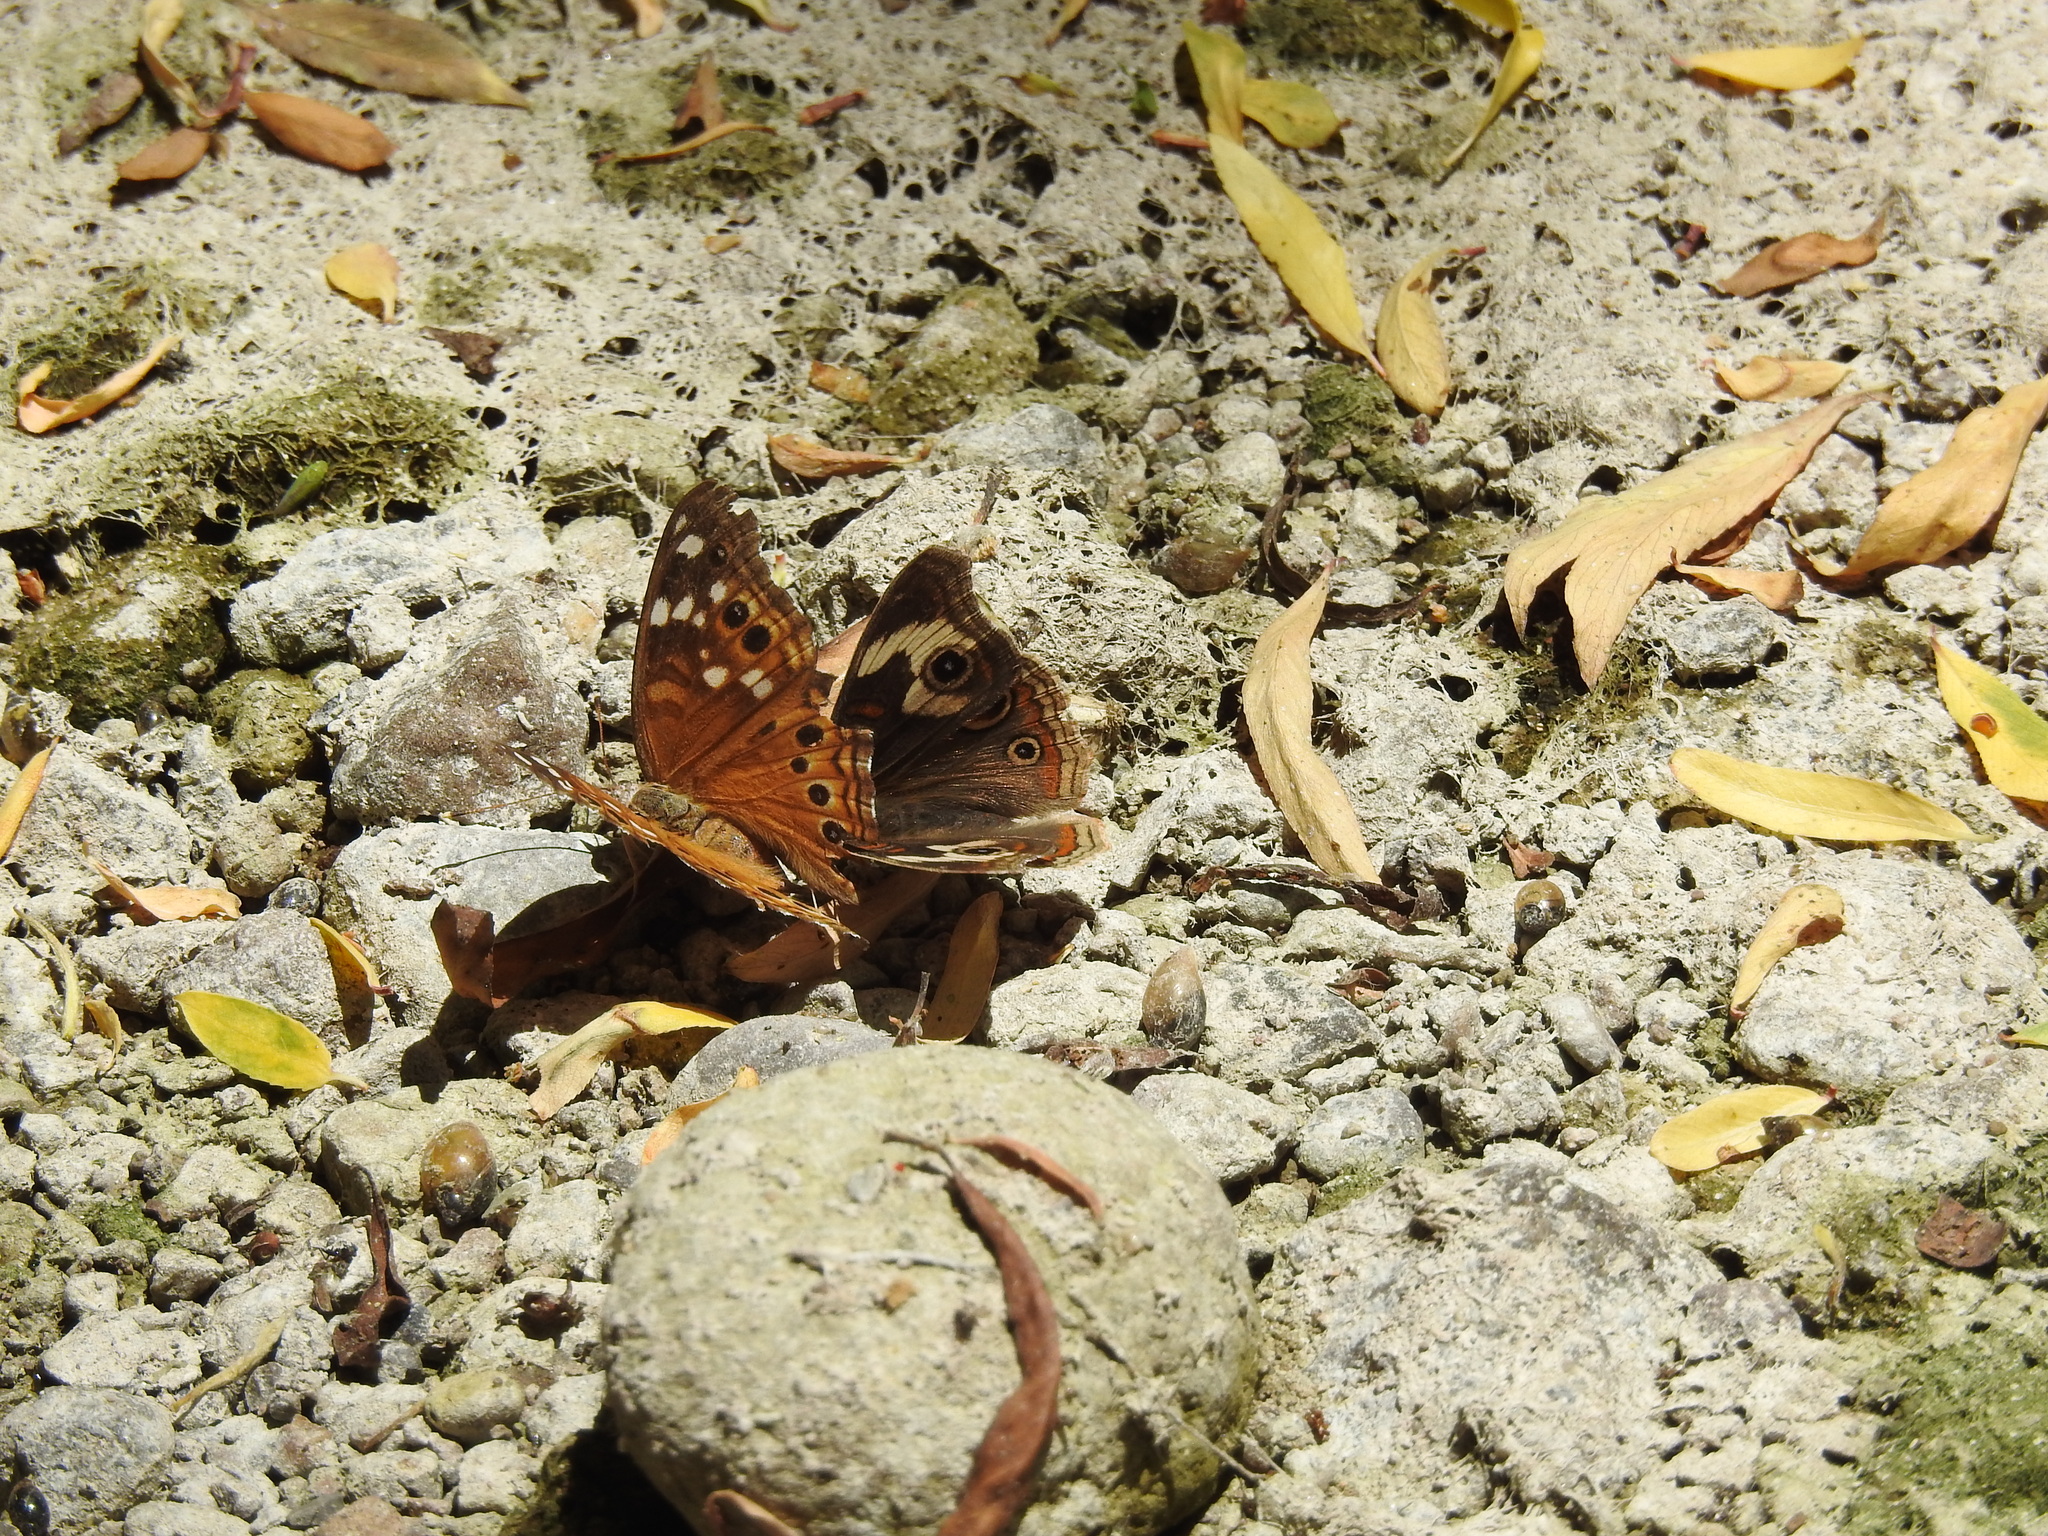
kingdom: Animalia
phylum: Arthropoda
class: Insecta
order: Lepidoptera
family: Nymphalidae
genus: Asterocampa
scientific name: Asterocampa leilia
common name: Empress leilia
